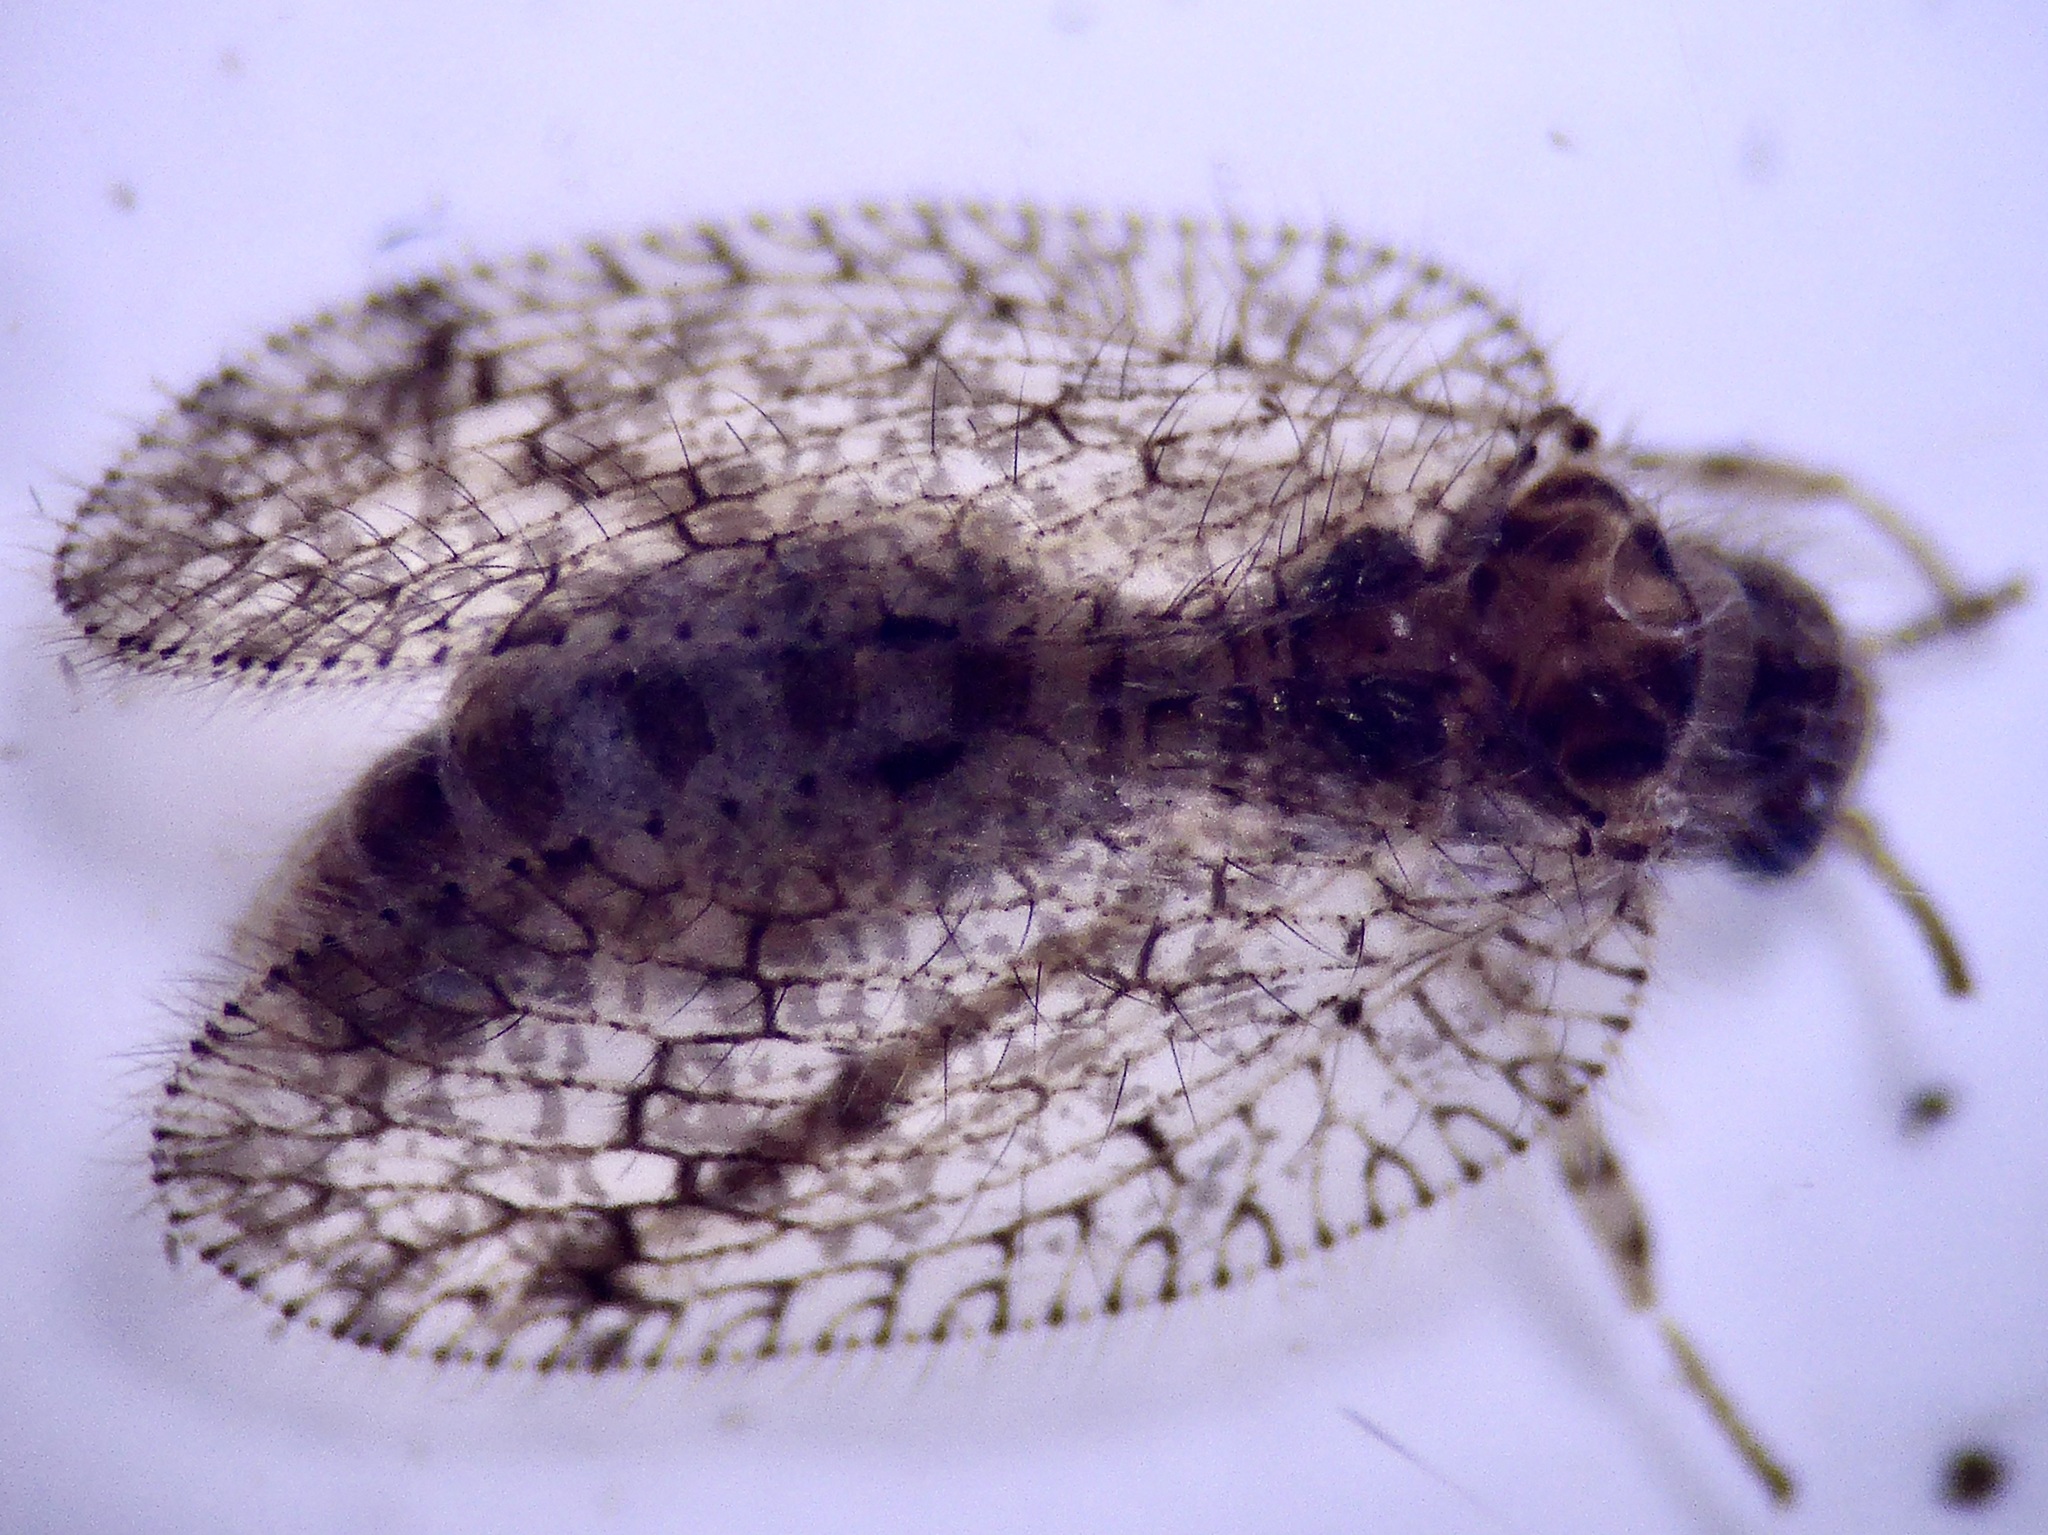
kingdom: Animalia
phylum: Arthropoda
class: Insecta
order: Neuroptera
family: Hemerobiidae
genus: Psectra
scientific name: Psectra nakaharai
